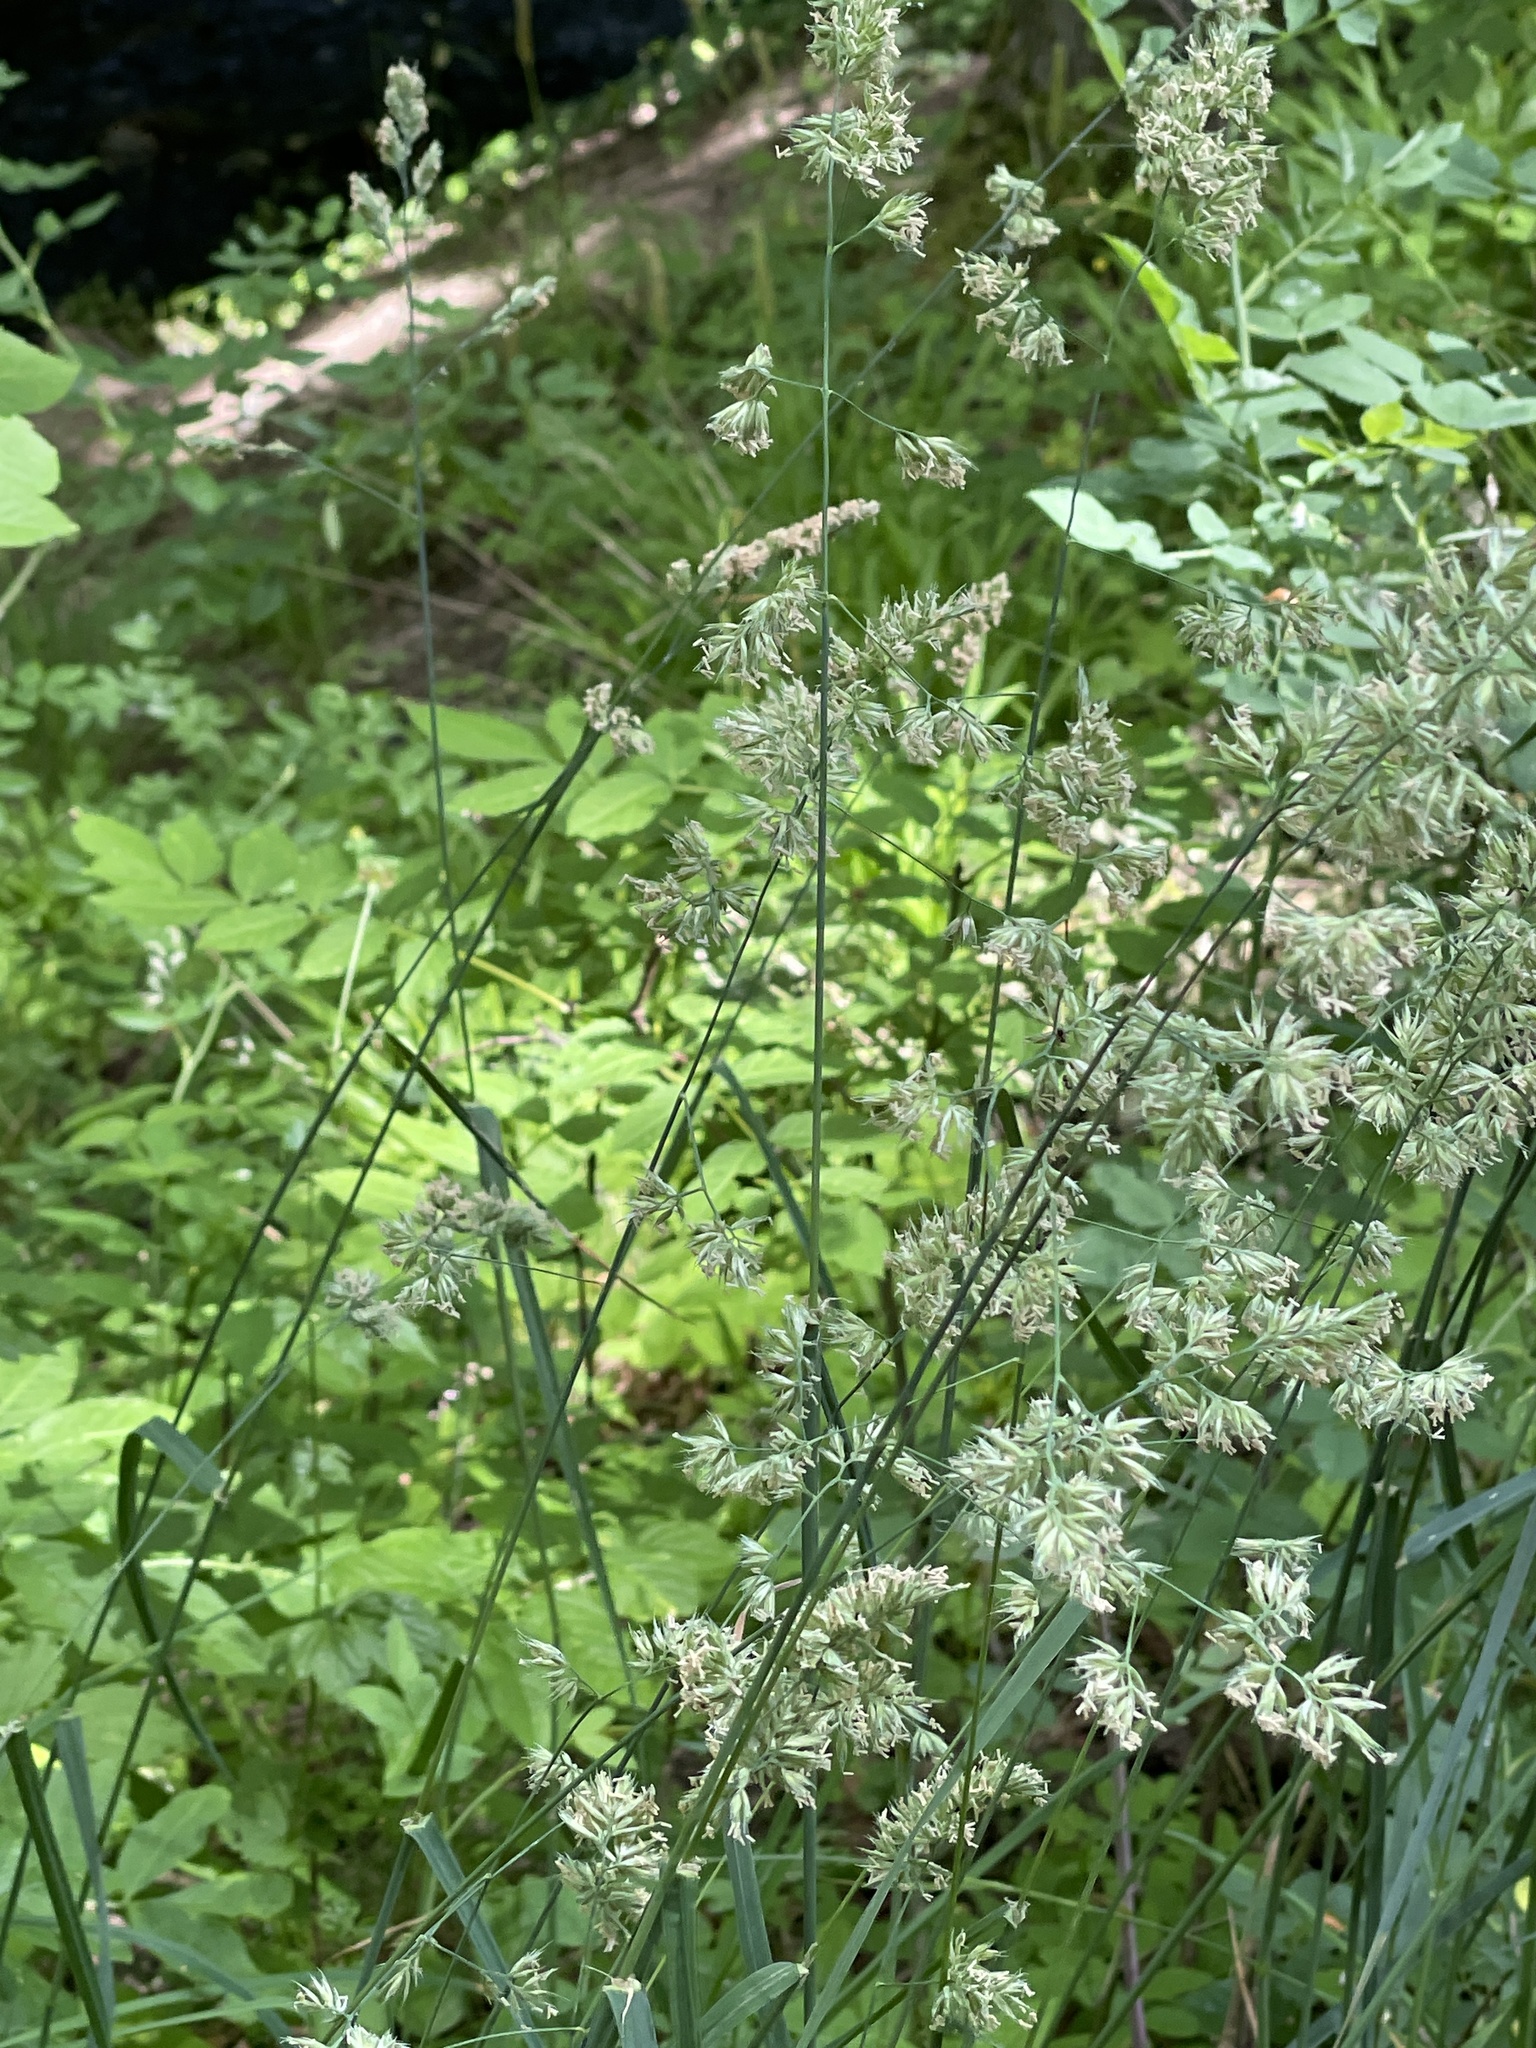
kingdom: Plantae
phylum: Tracheophyta
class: Liliopsida
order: Poales
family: Poaceae
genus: Dactylis
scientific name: Dactylis glomerata
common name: Orchardgrass
